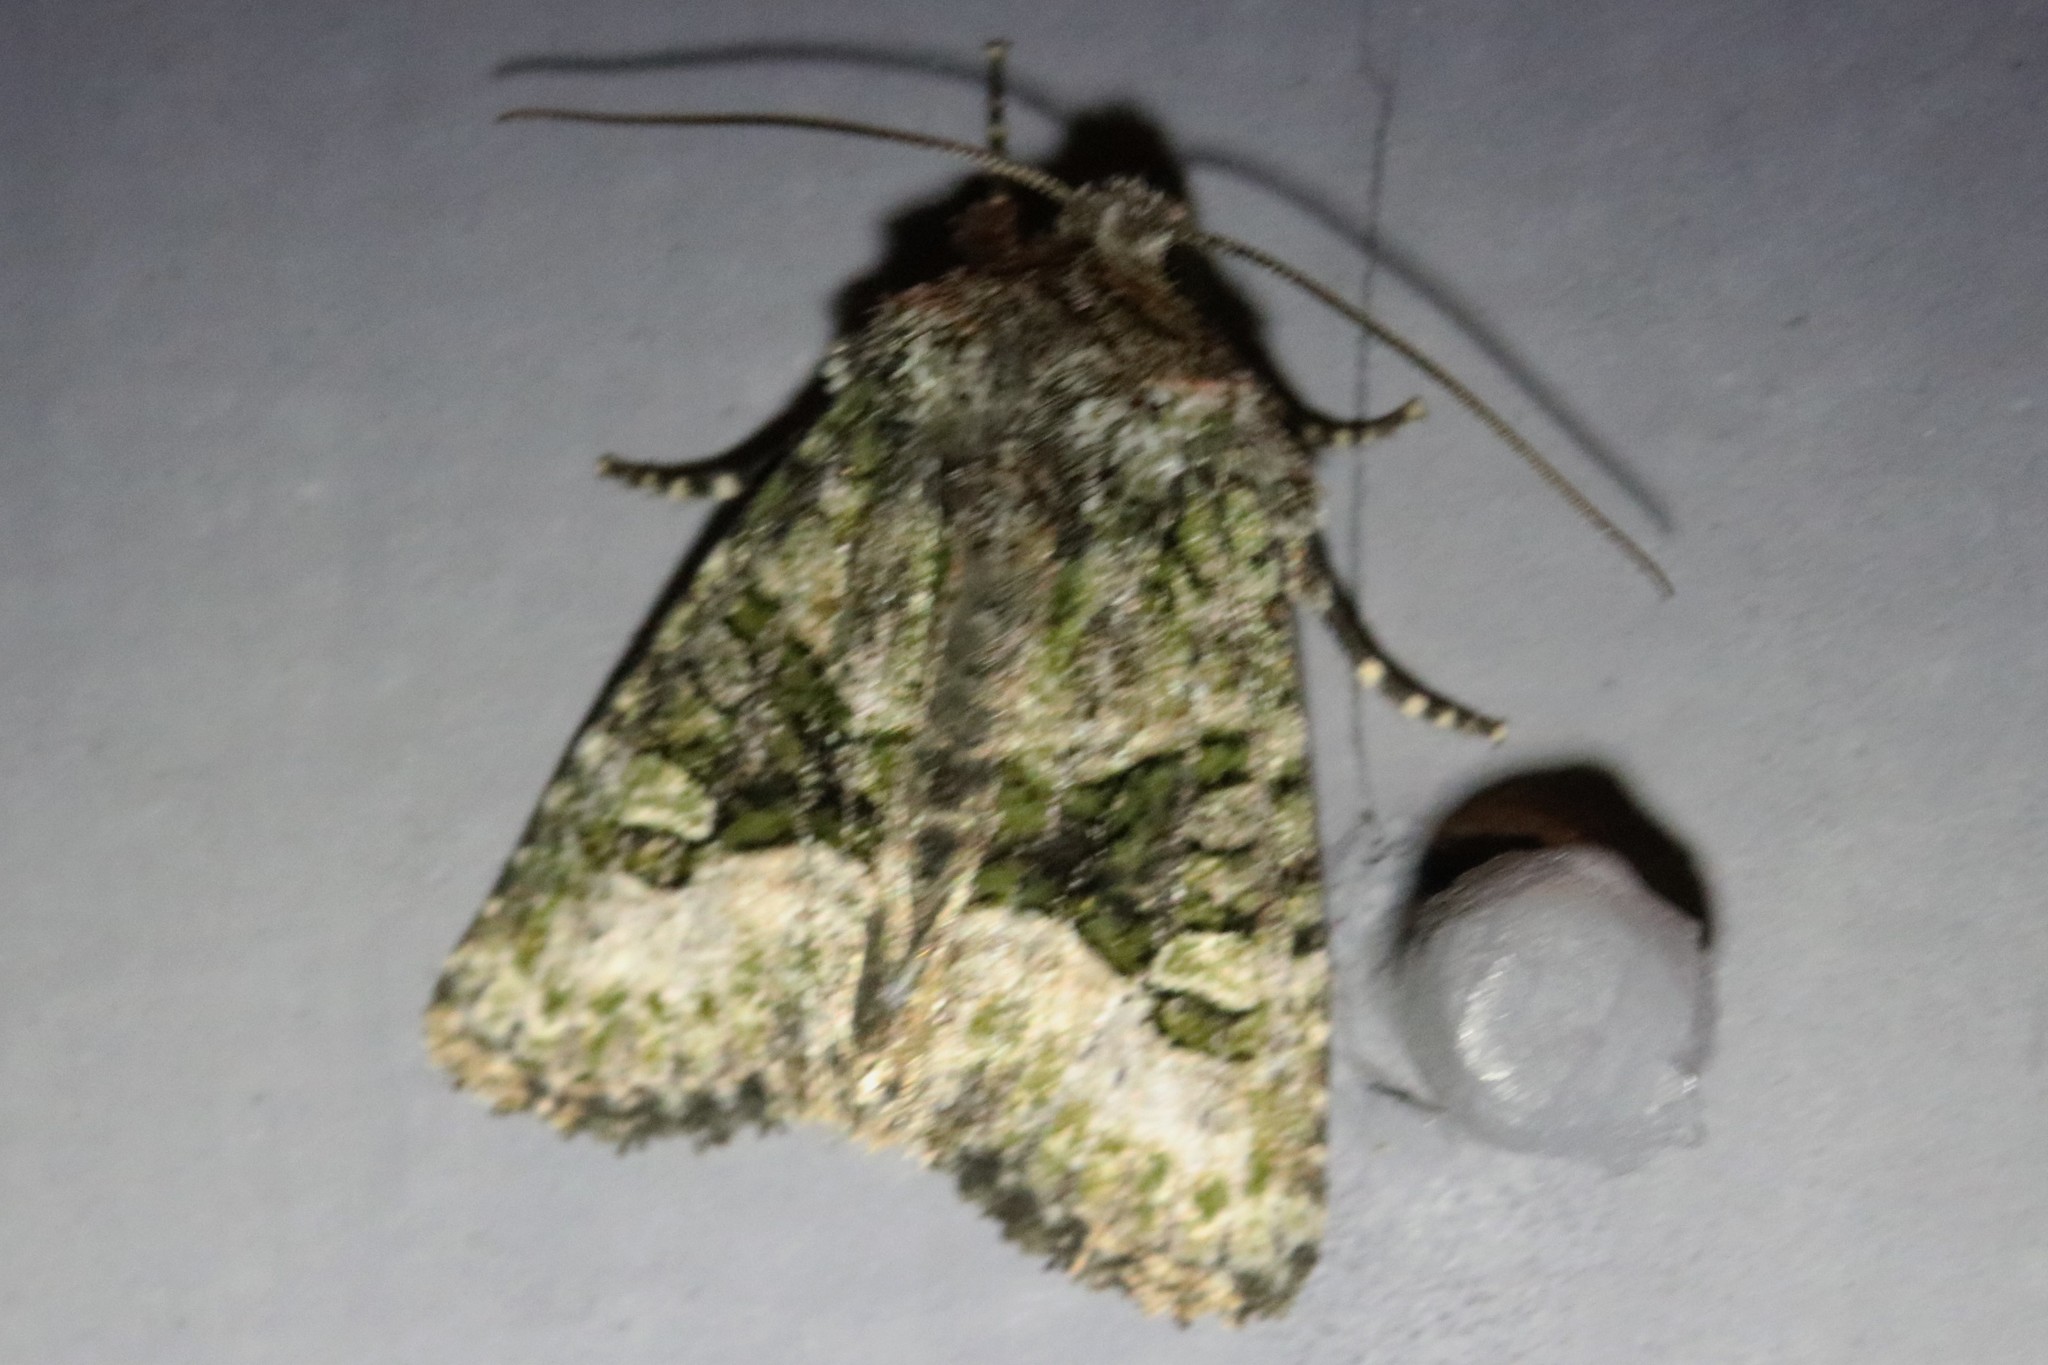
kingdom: Animalia
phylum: Arthropoda
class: Insecta
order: Lepidoptera
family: Noctuidae
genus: Lacinipolia
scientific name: Lacinipolia olivacea
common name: Olive arches moth
